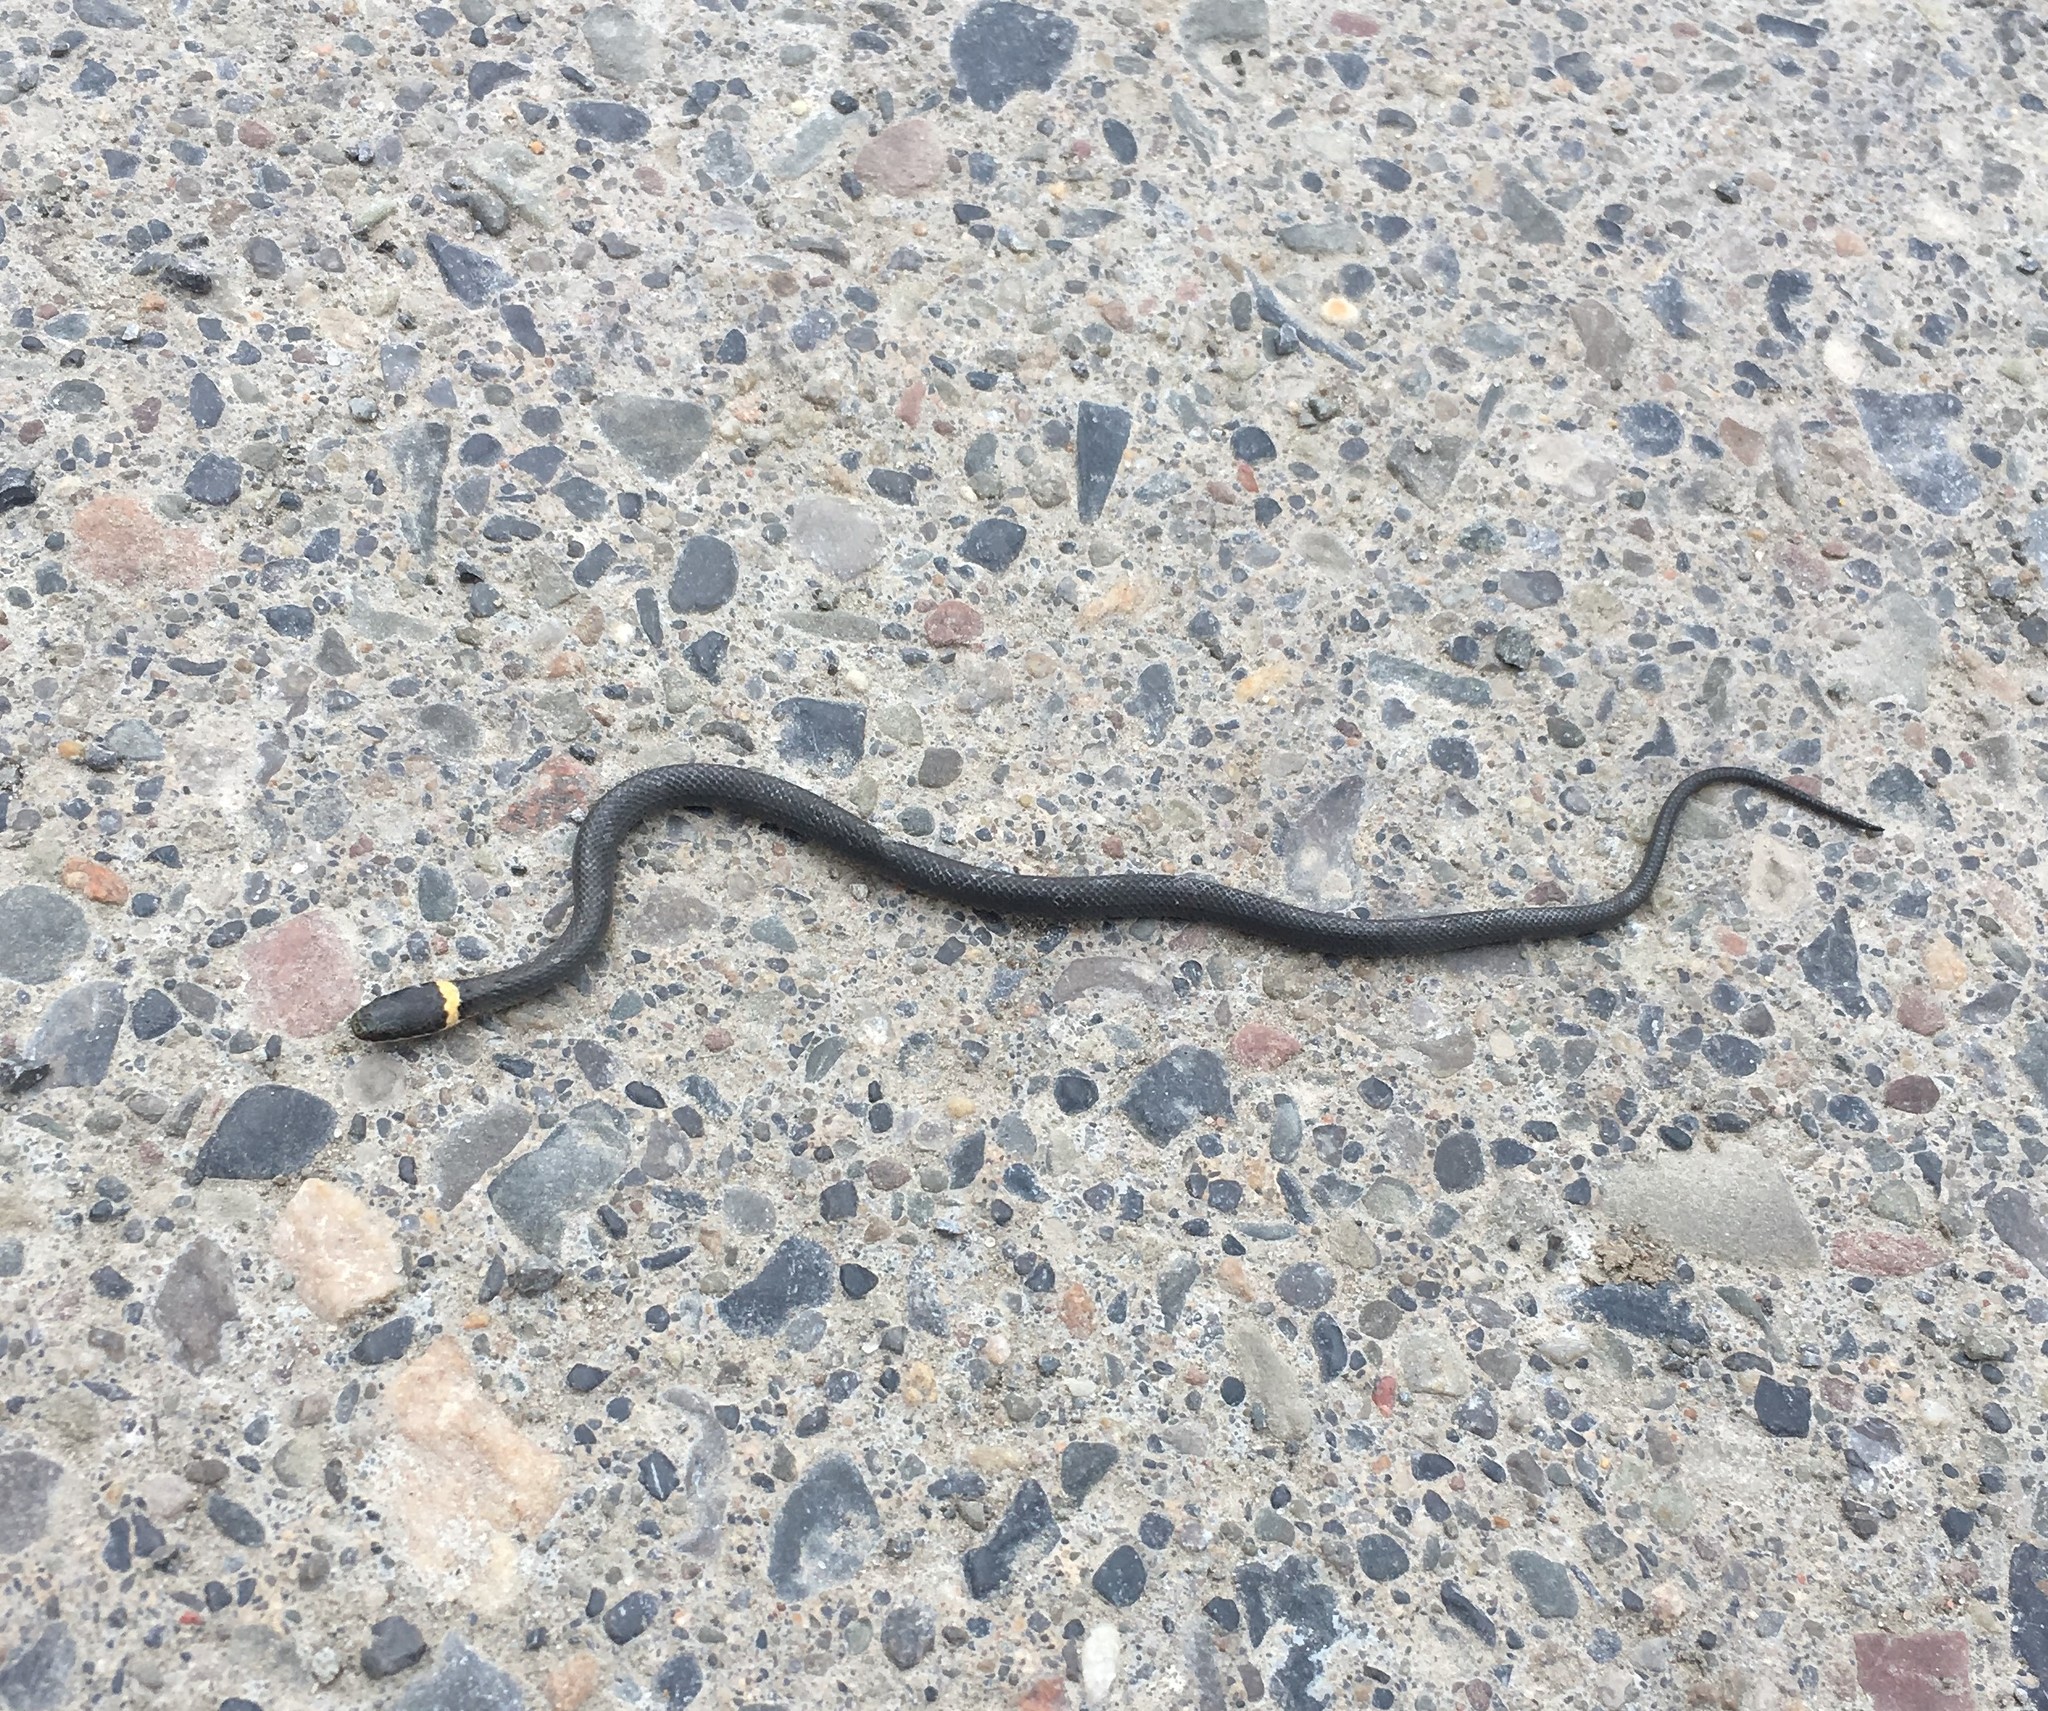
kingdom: Animalia
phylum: Chordata
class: Squamata
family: Colubridae
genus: Diadophis
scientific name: Diadophis punctatus
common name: Ringneck snake
